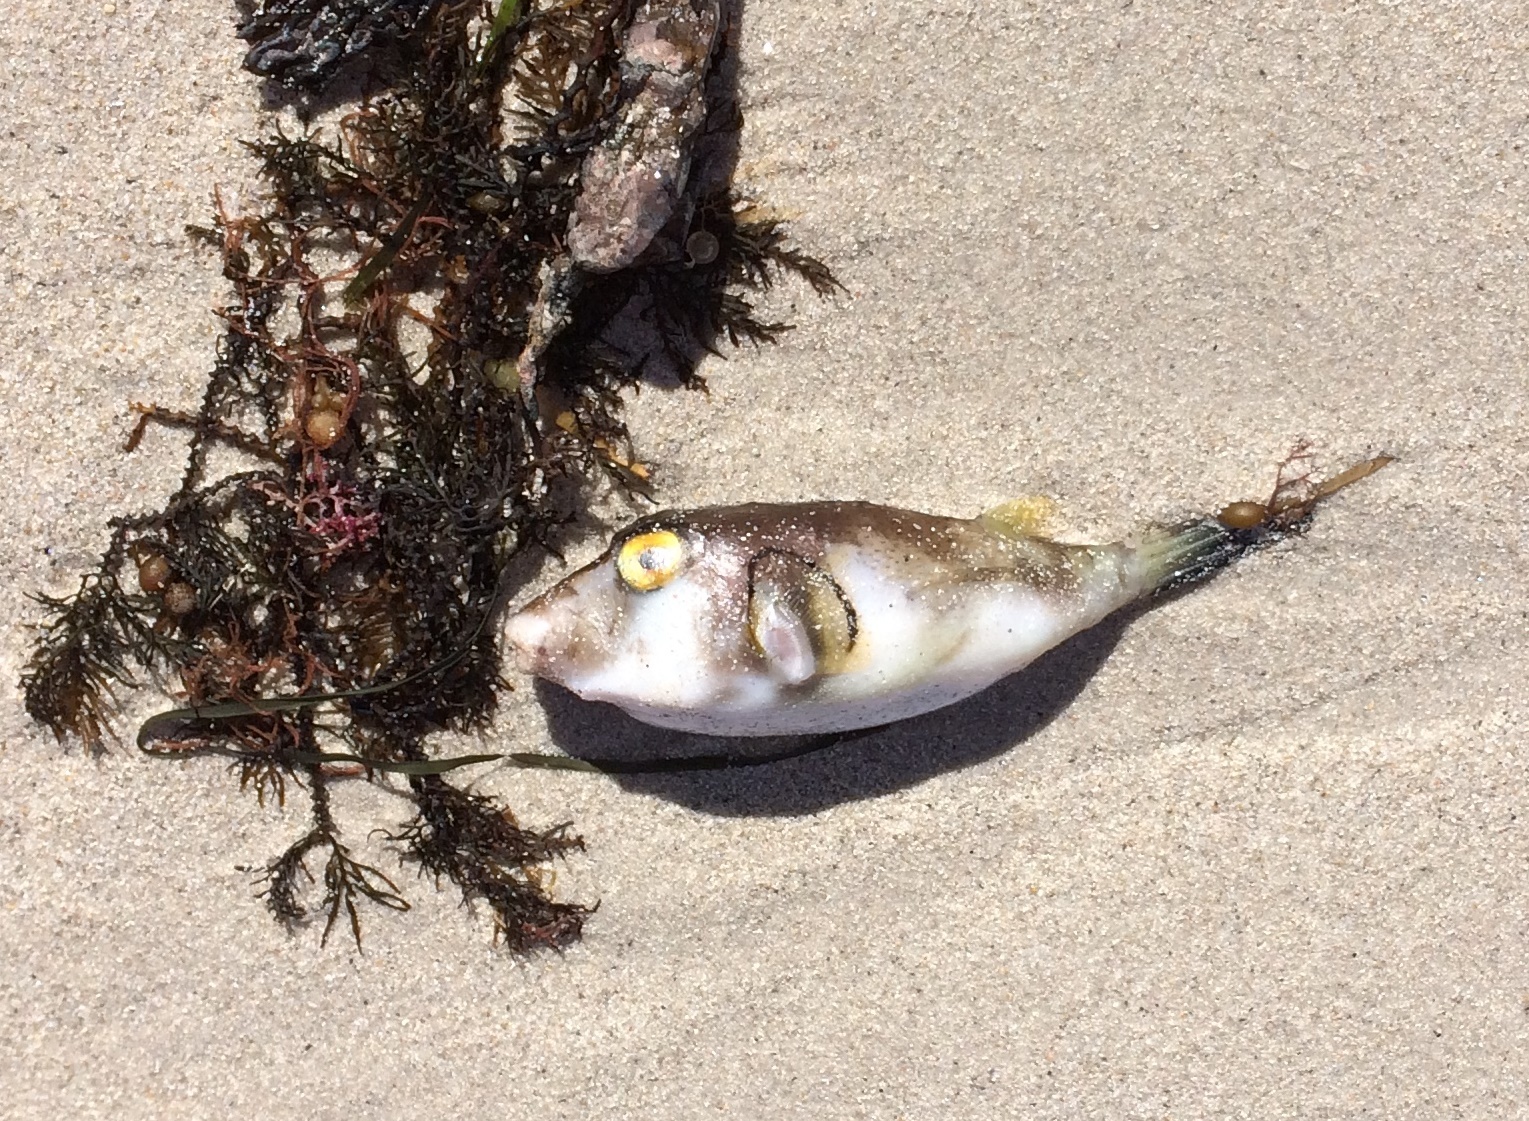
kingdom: Animalia
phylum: Chordata
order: Tetraodontiformes
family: Tetraodontidae
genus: Omegophora
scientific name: Omegophora armilla
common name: Ringed pufferfish
